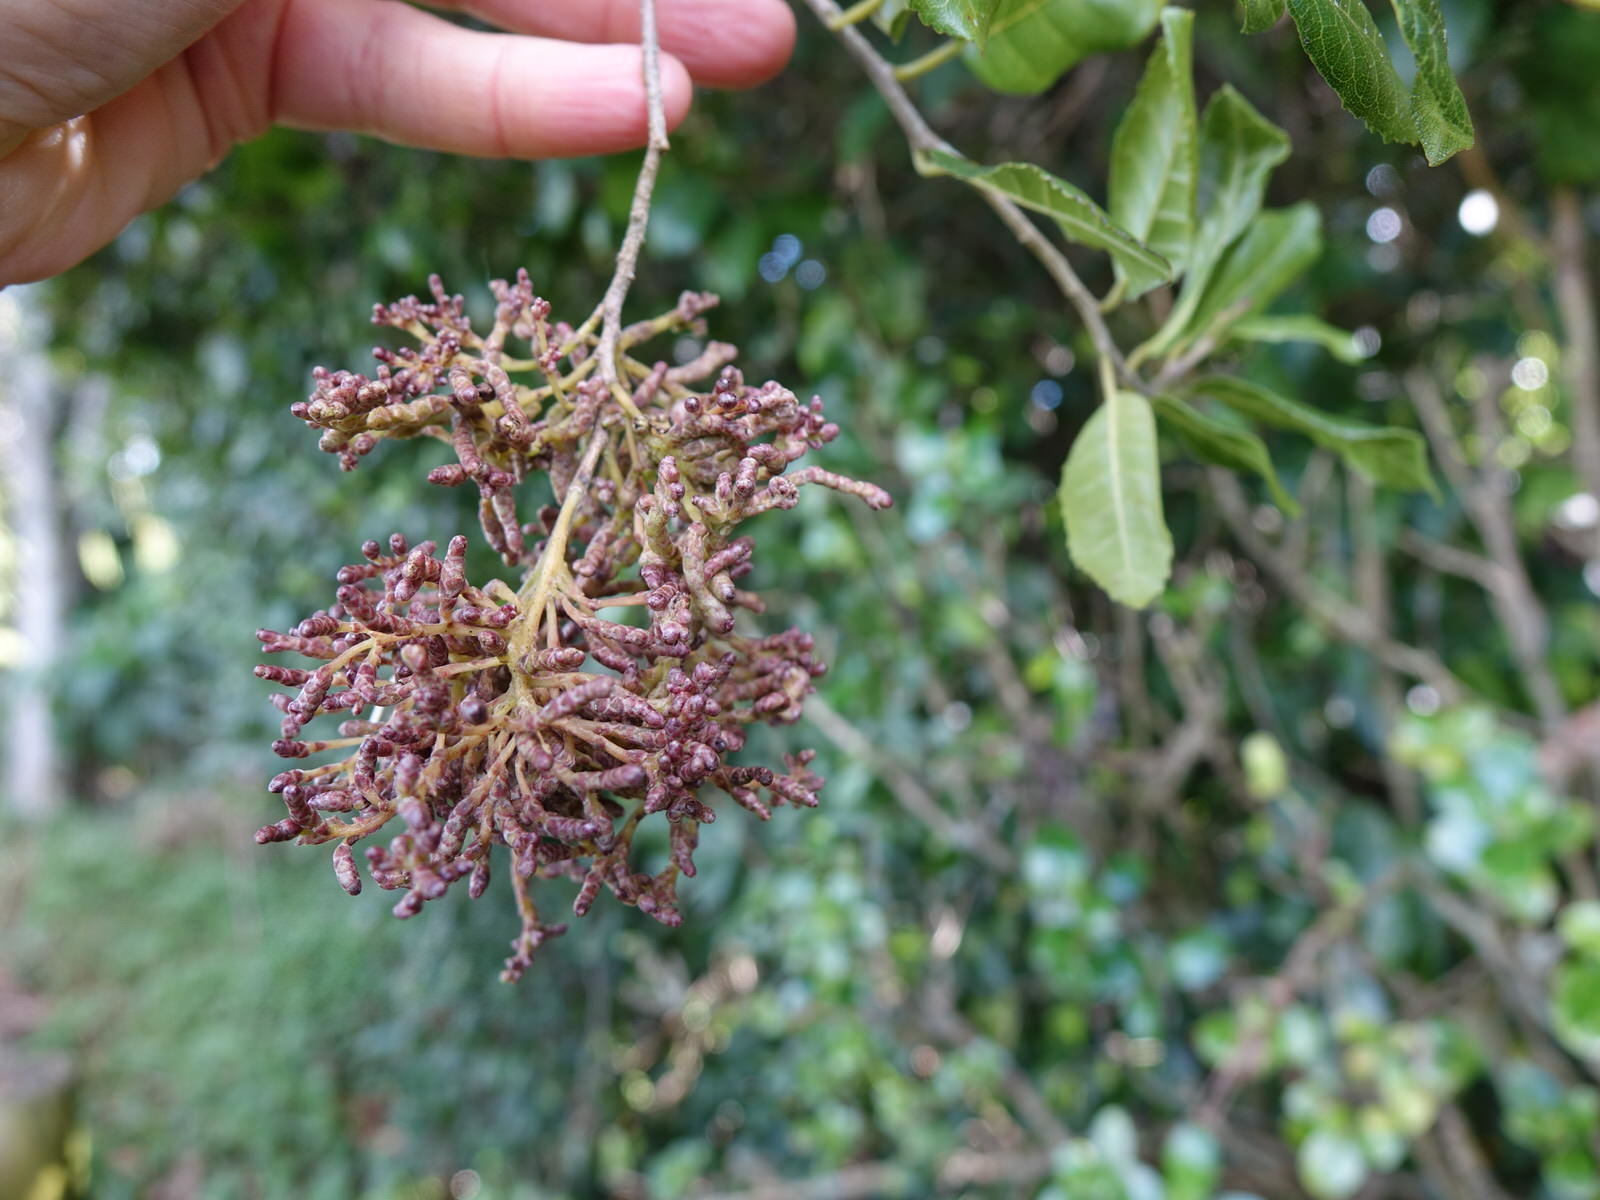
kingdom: Animalia
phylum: Arthropoda
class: Arachnida
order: Trombidiformes
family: Eriophyidae
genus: Eriophyes
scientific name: Eriophyes
